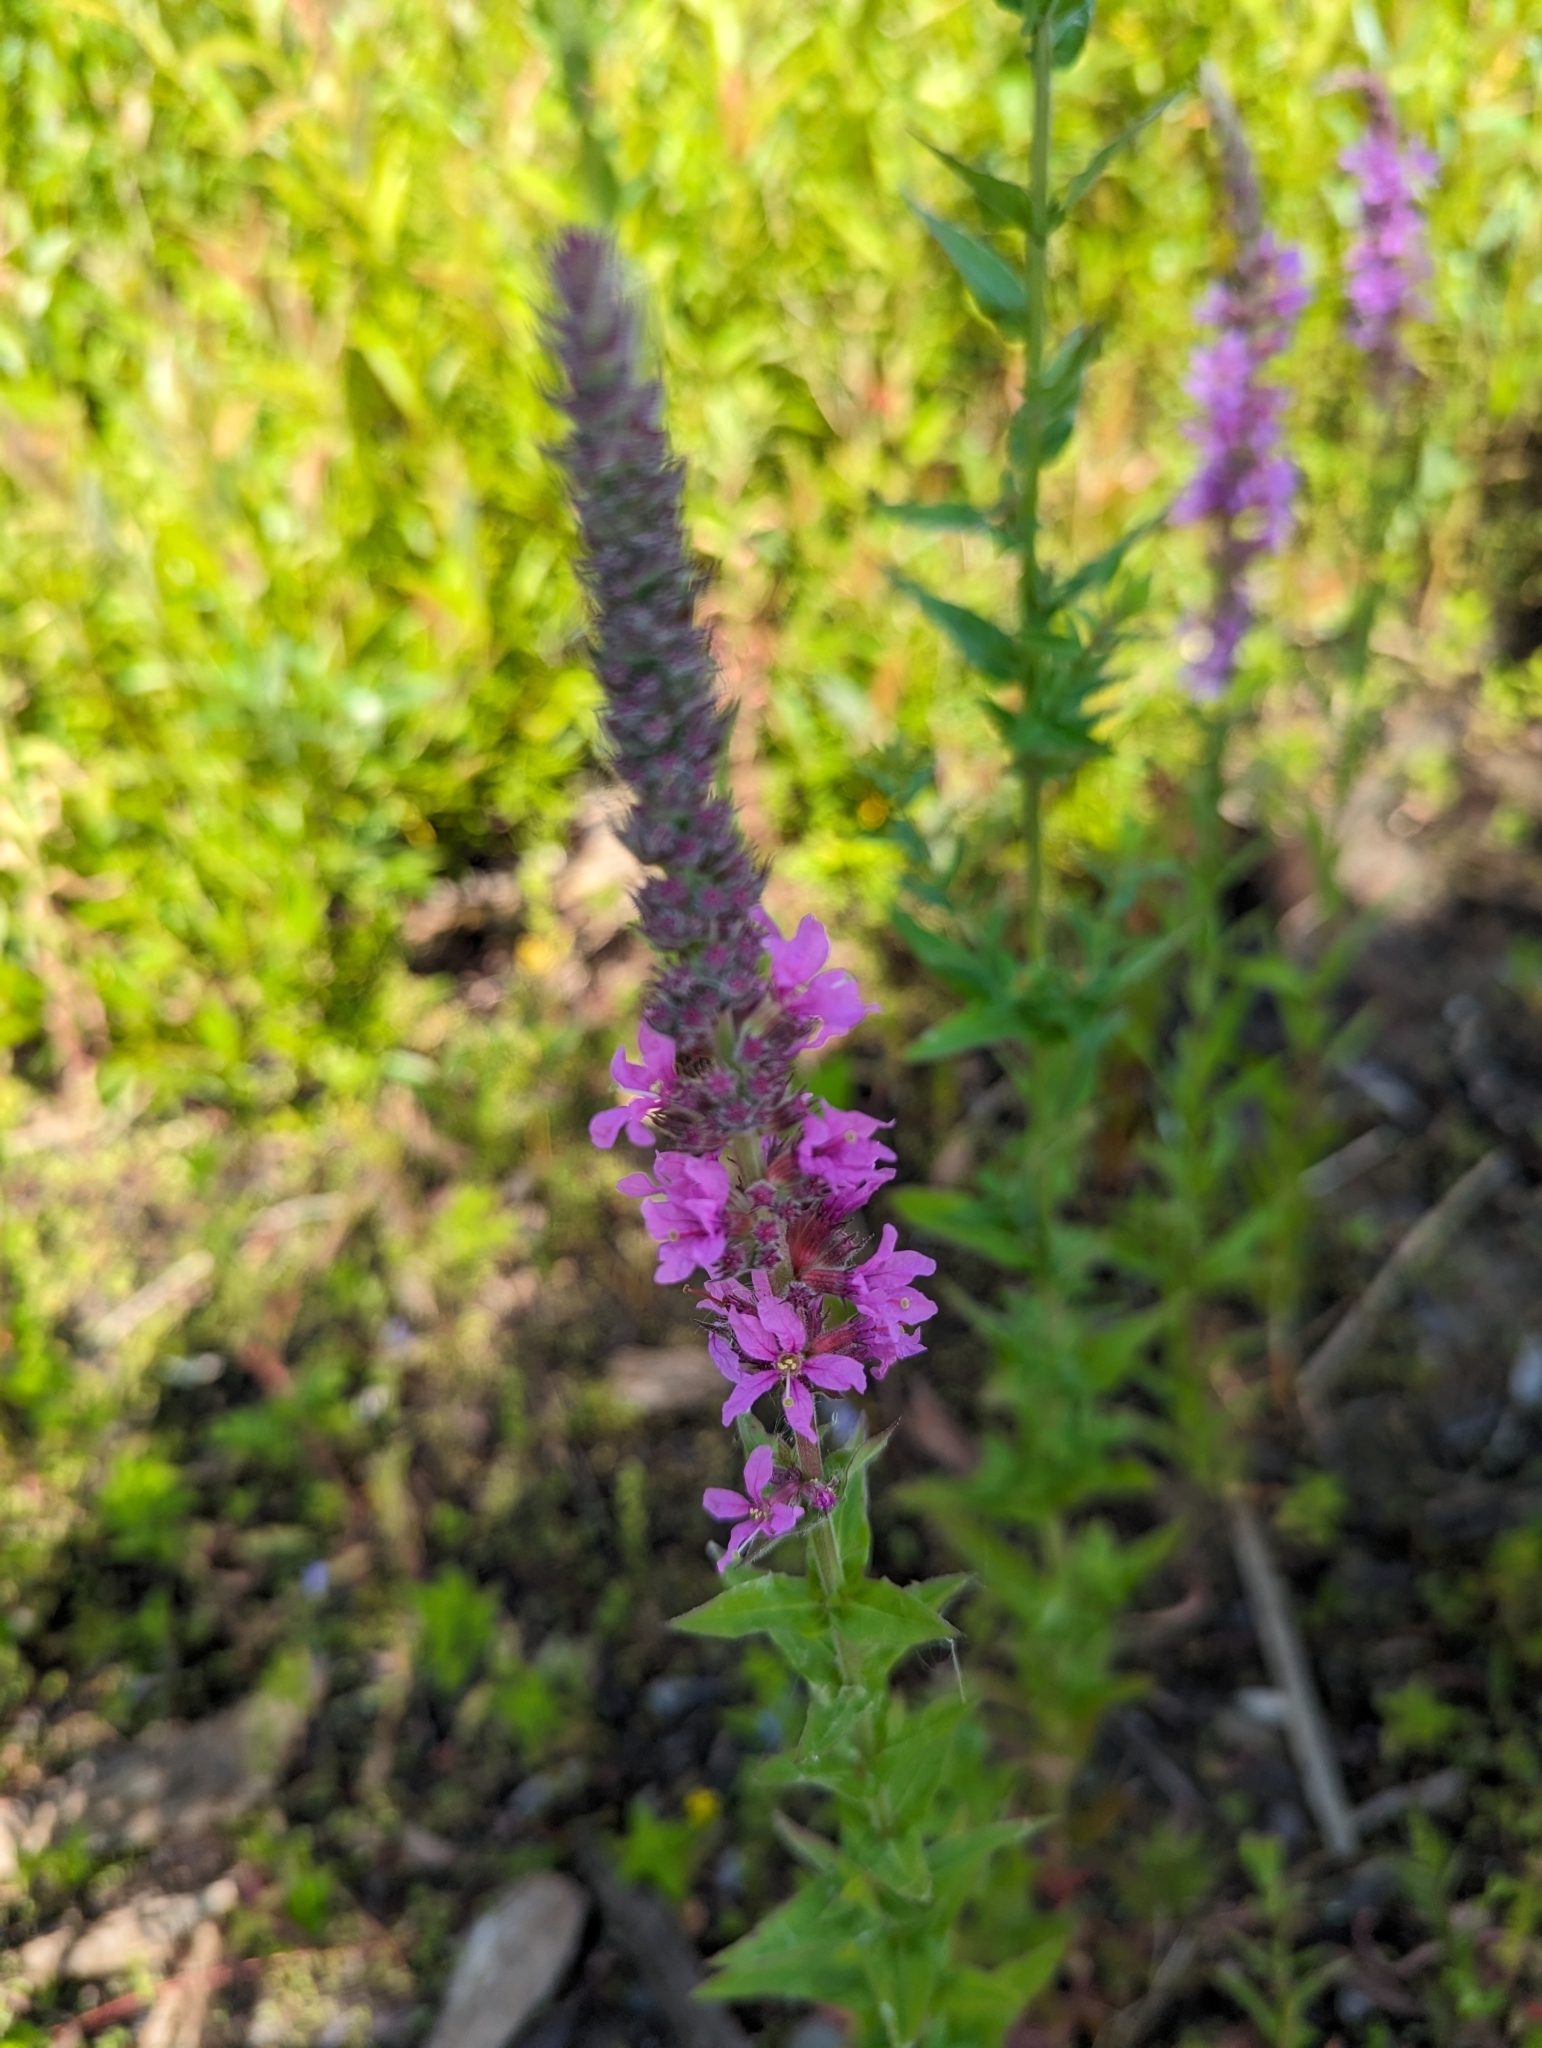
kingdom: Plantae
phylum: Tracheophyta
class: Magnoliopsida
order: Myrtales
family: Lythraceae
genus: Lythrum
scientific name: Lythrum salicaria
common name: Purple loosestrife
